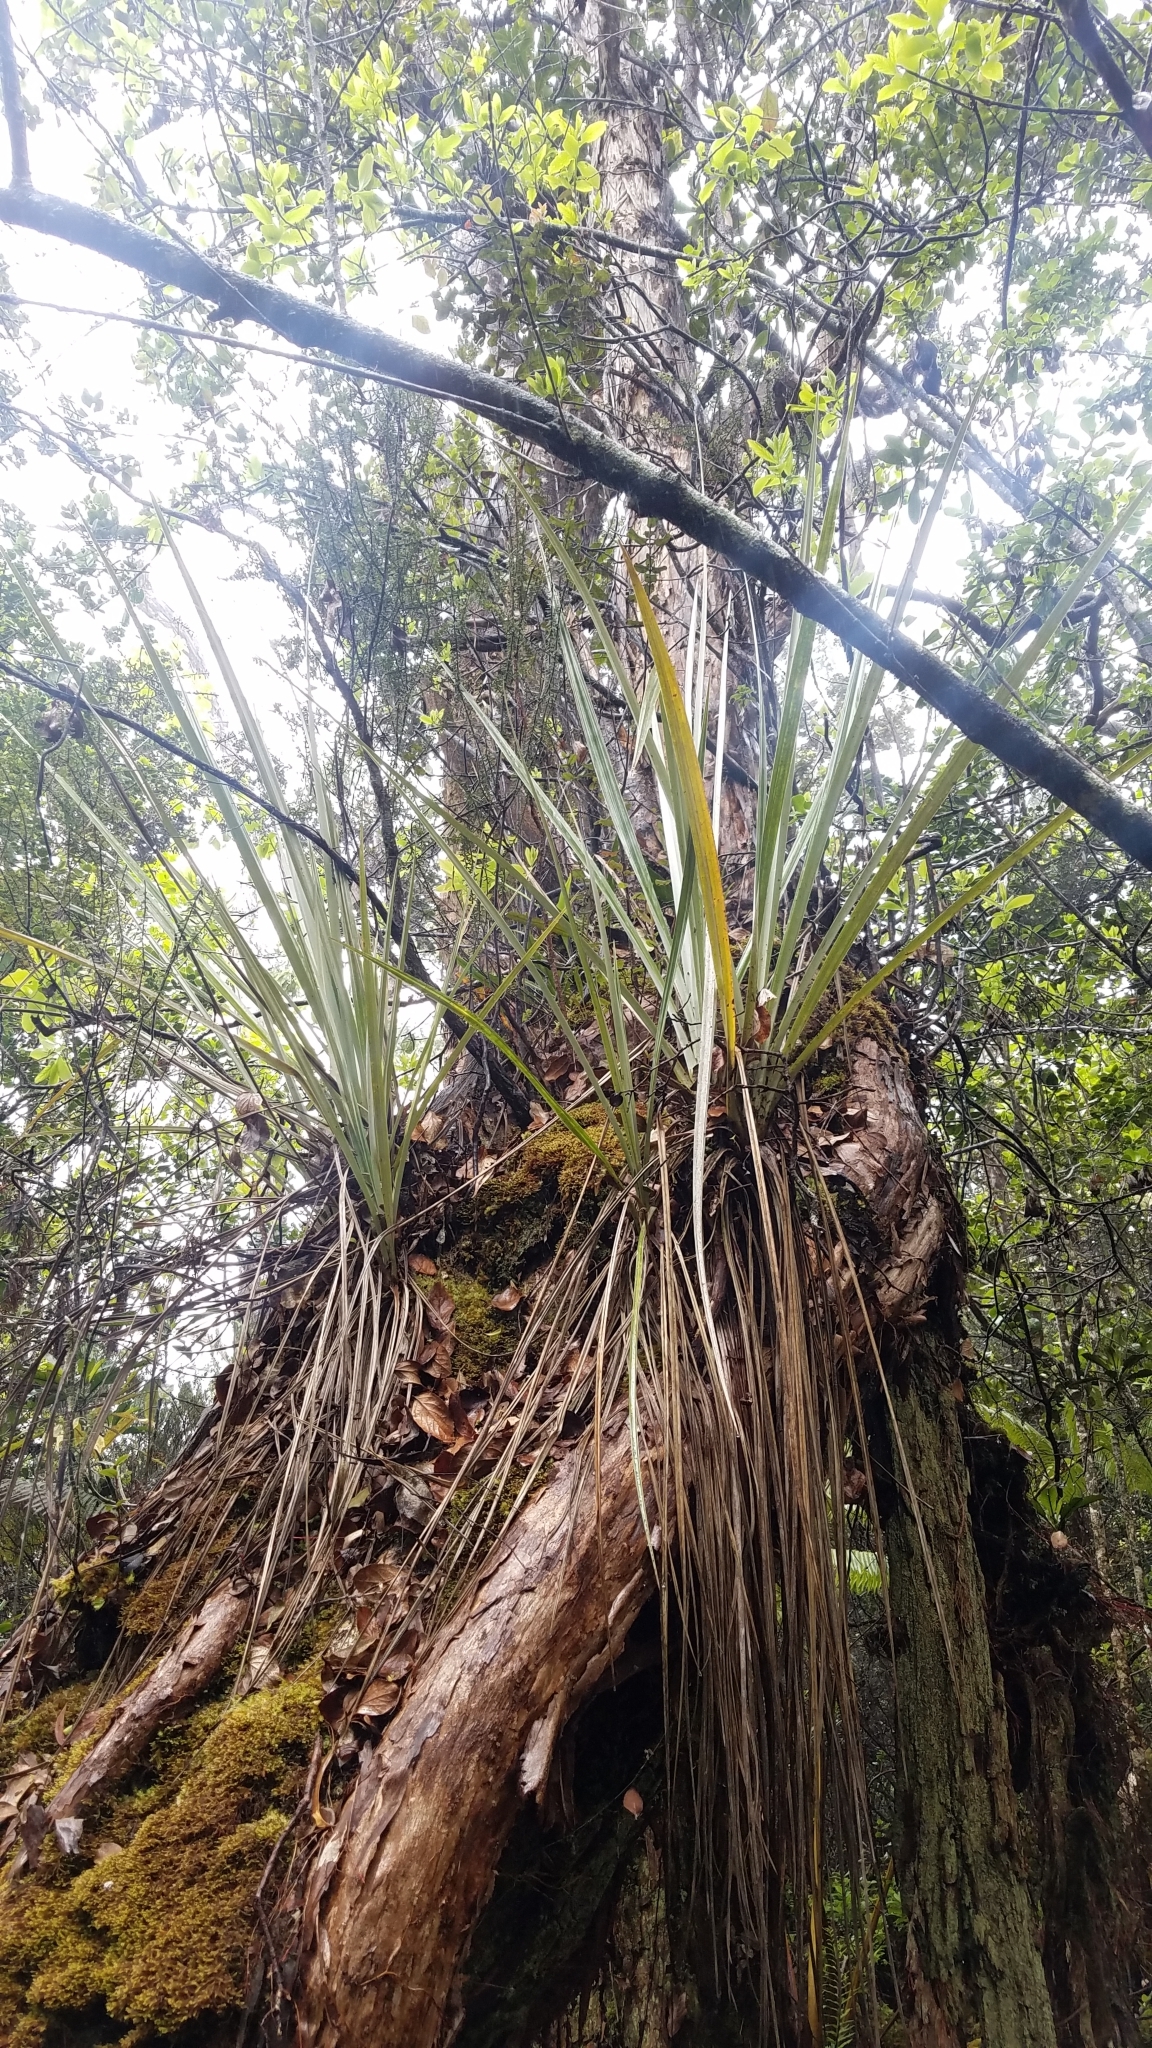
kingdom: Plantae
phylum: Tracheophyta
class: Liliopsida
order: Asparagales
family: Asteliaceae
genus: Astelia
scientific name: Astelia menziesiana
